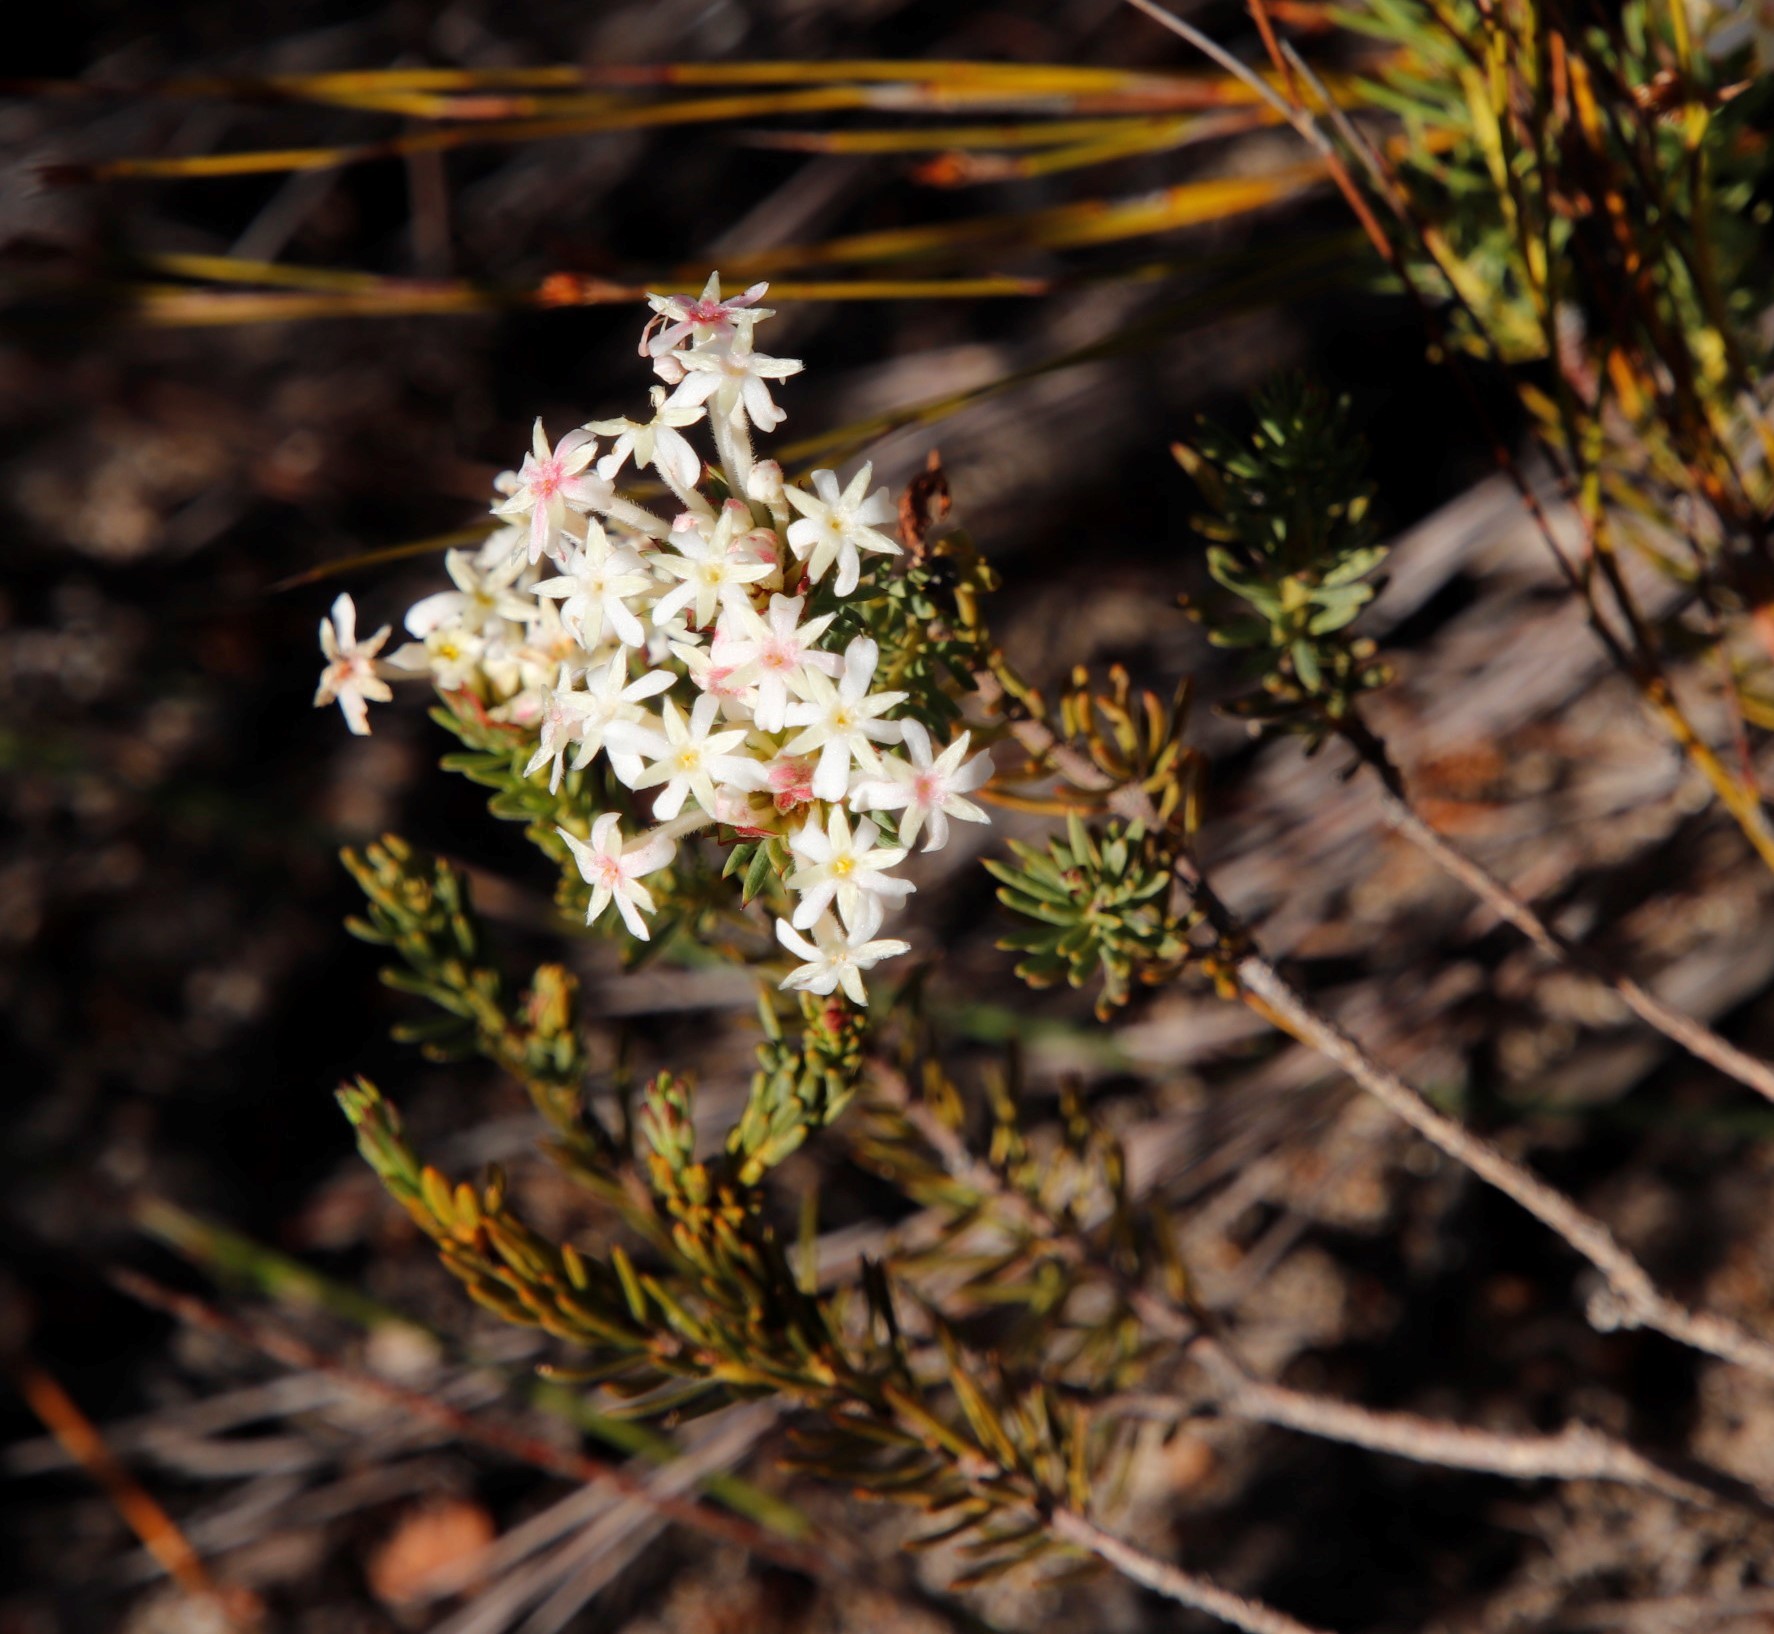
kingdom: Plantae
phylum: Tracheophyta
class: Magnoliopsida
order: Malvales
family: Thymelaeaceae
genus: Gnidia
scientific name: Gnidia pinifolia
